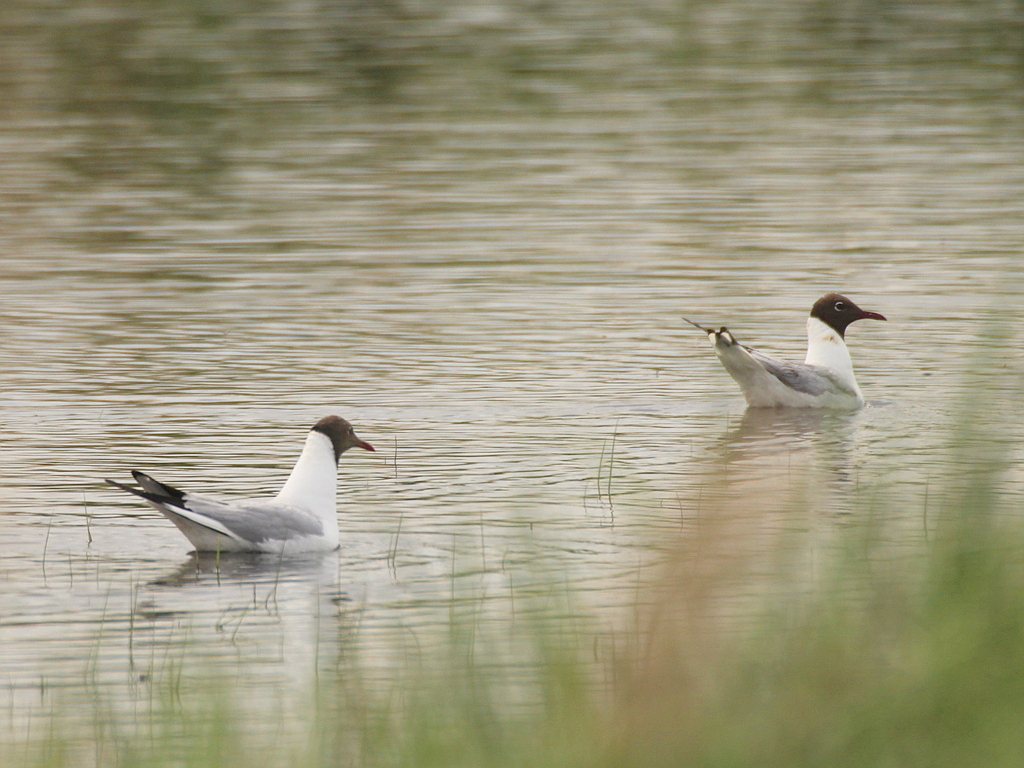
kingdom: Animalia
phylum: Chordata
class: Aves
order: Charadriiformes
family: Laridae
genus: Chroicocephalus
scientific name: Chroicocephalus ridibundus
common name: Black-headed gull
